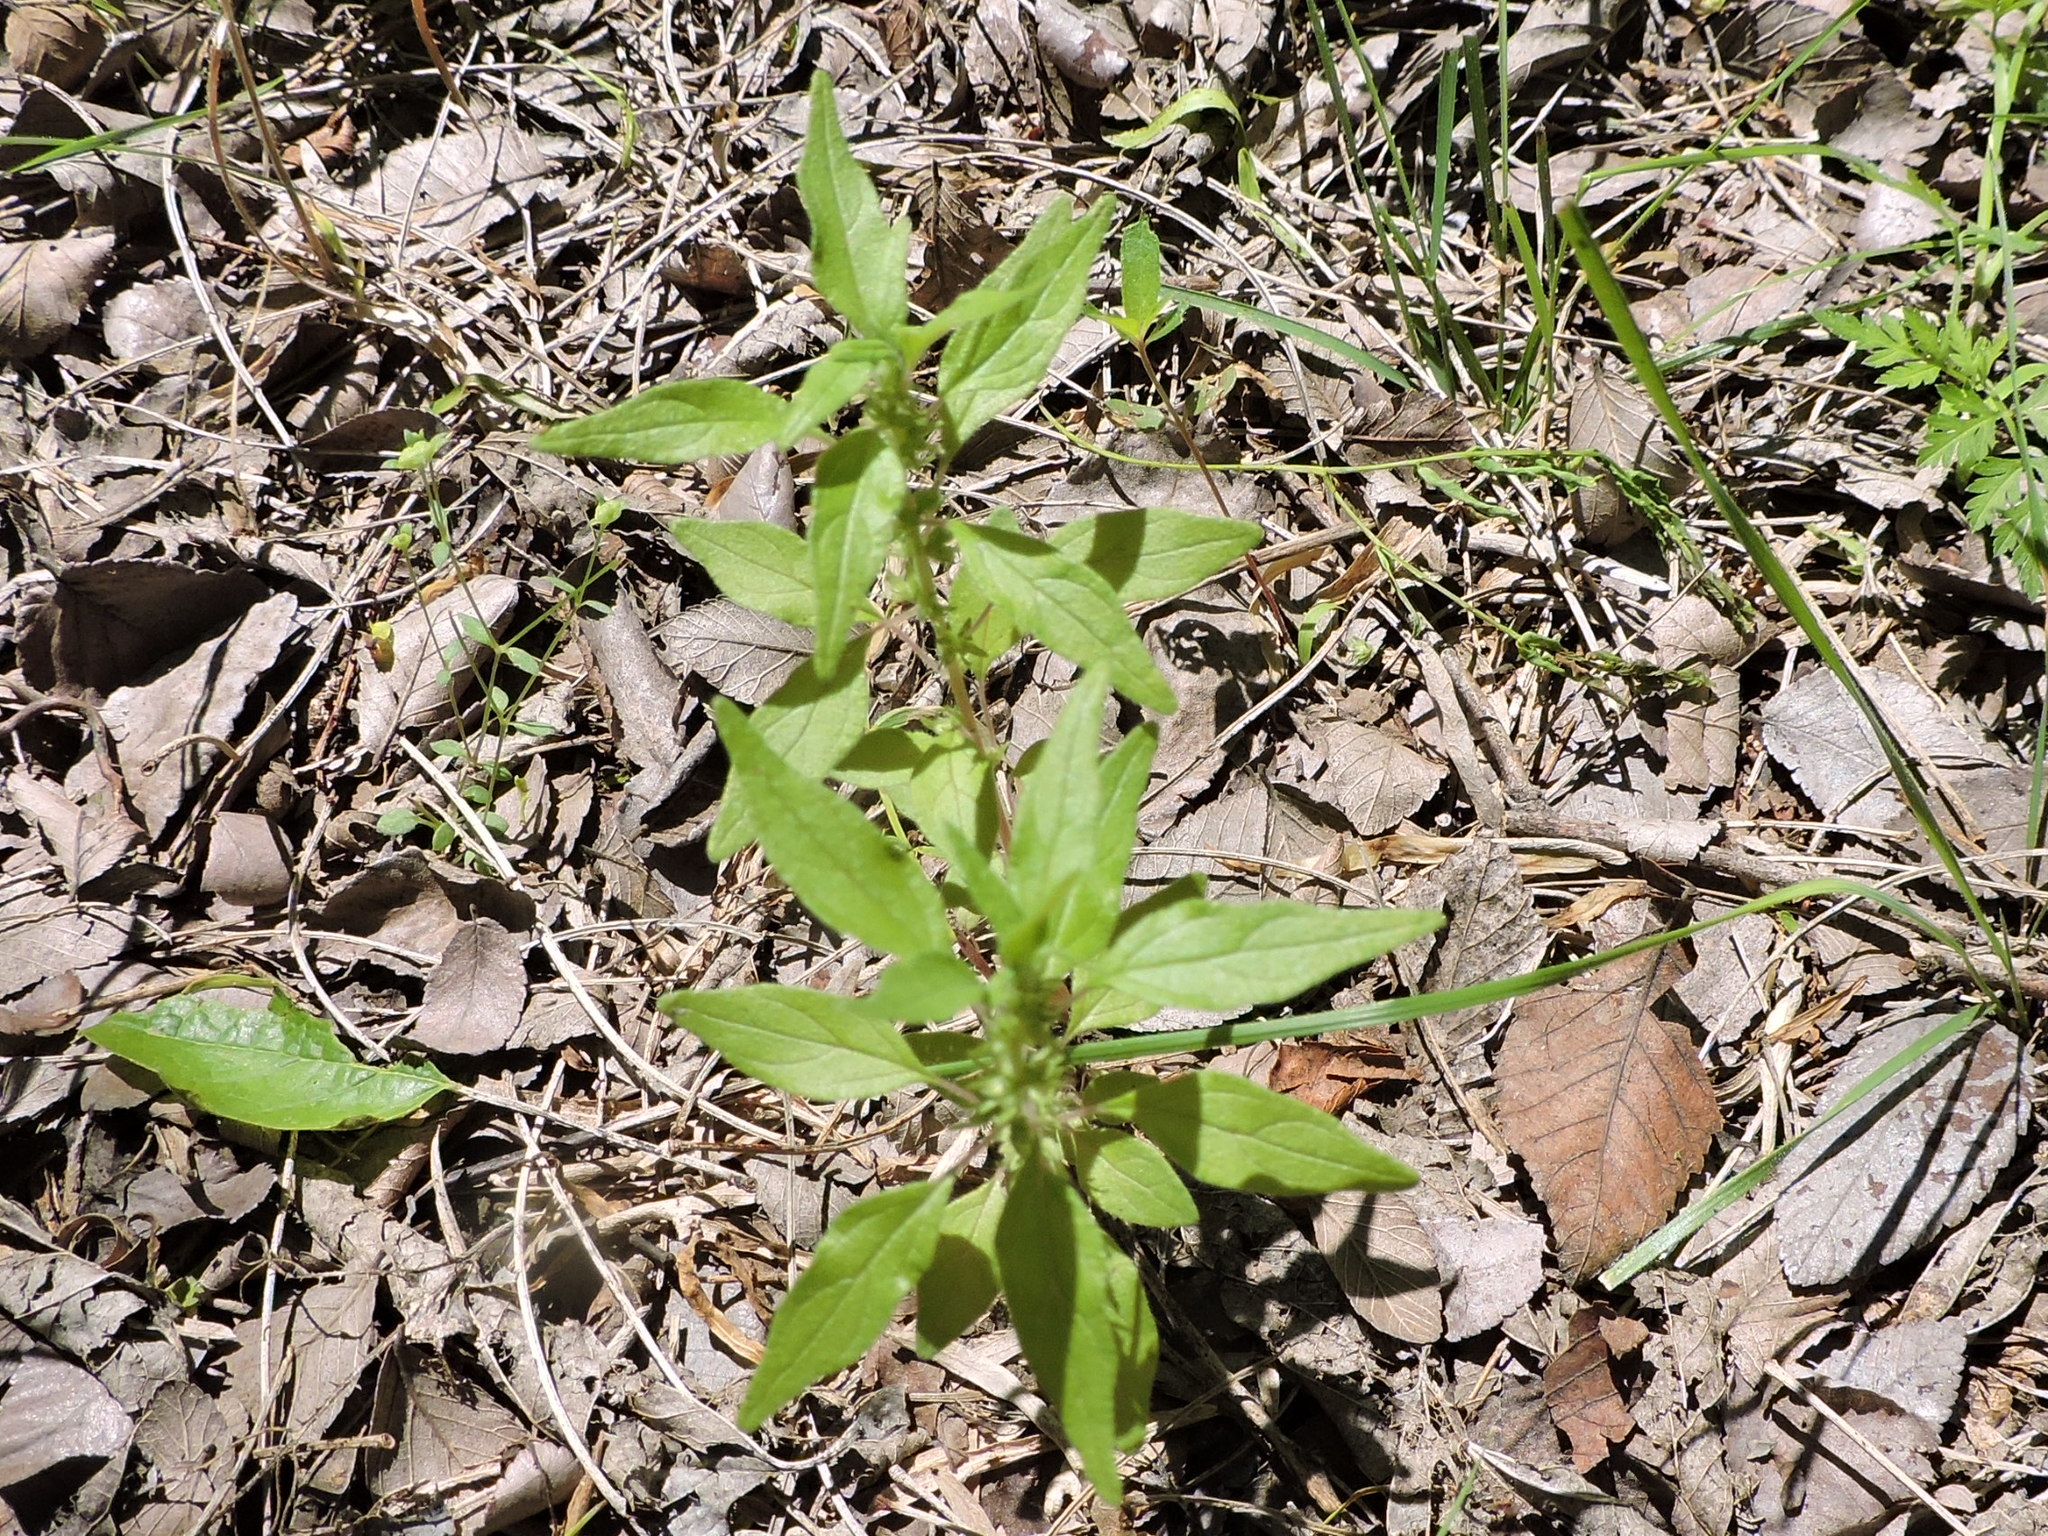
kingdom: Plantae
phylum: Tracheophyta
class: Magnoliopsida
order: Rosales
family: Urticaceae
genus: Parietaria
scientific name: Parietaria pensylvanica
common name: Pennsylvania pellitory
